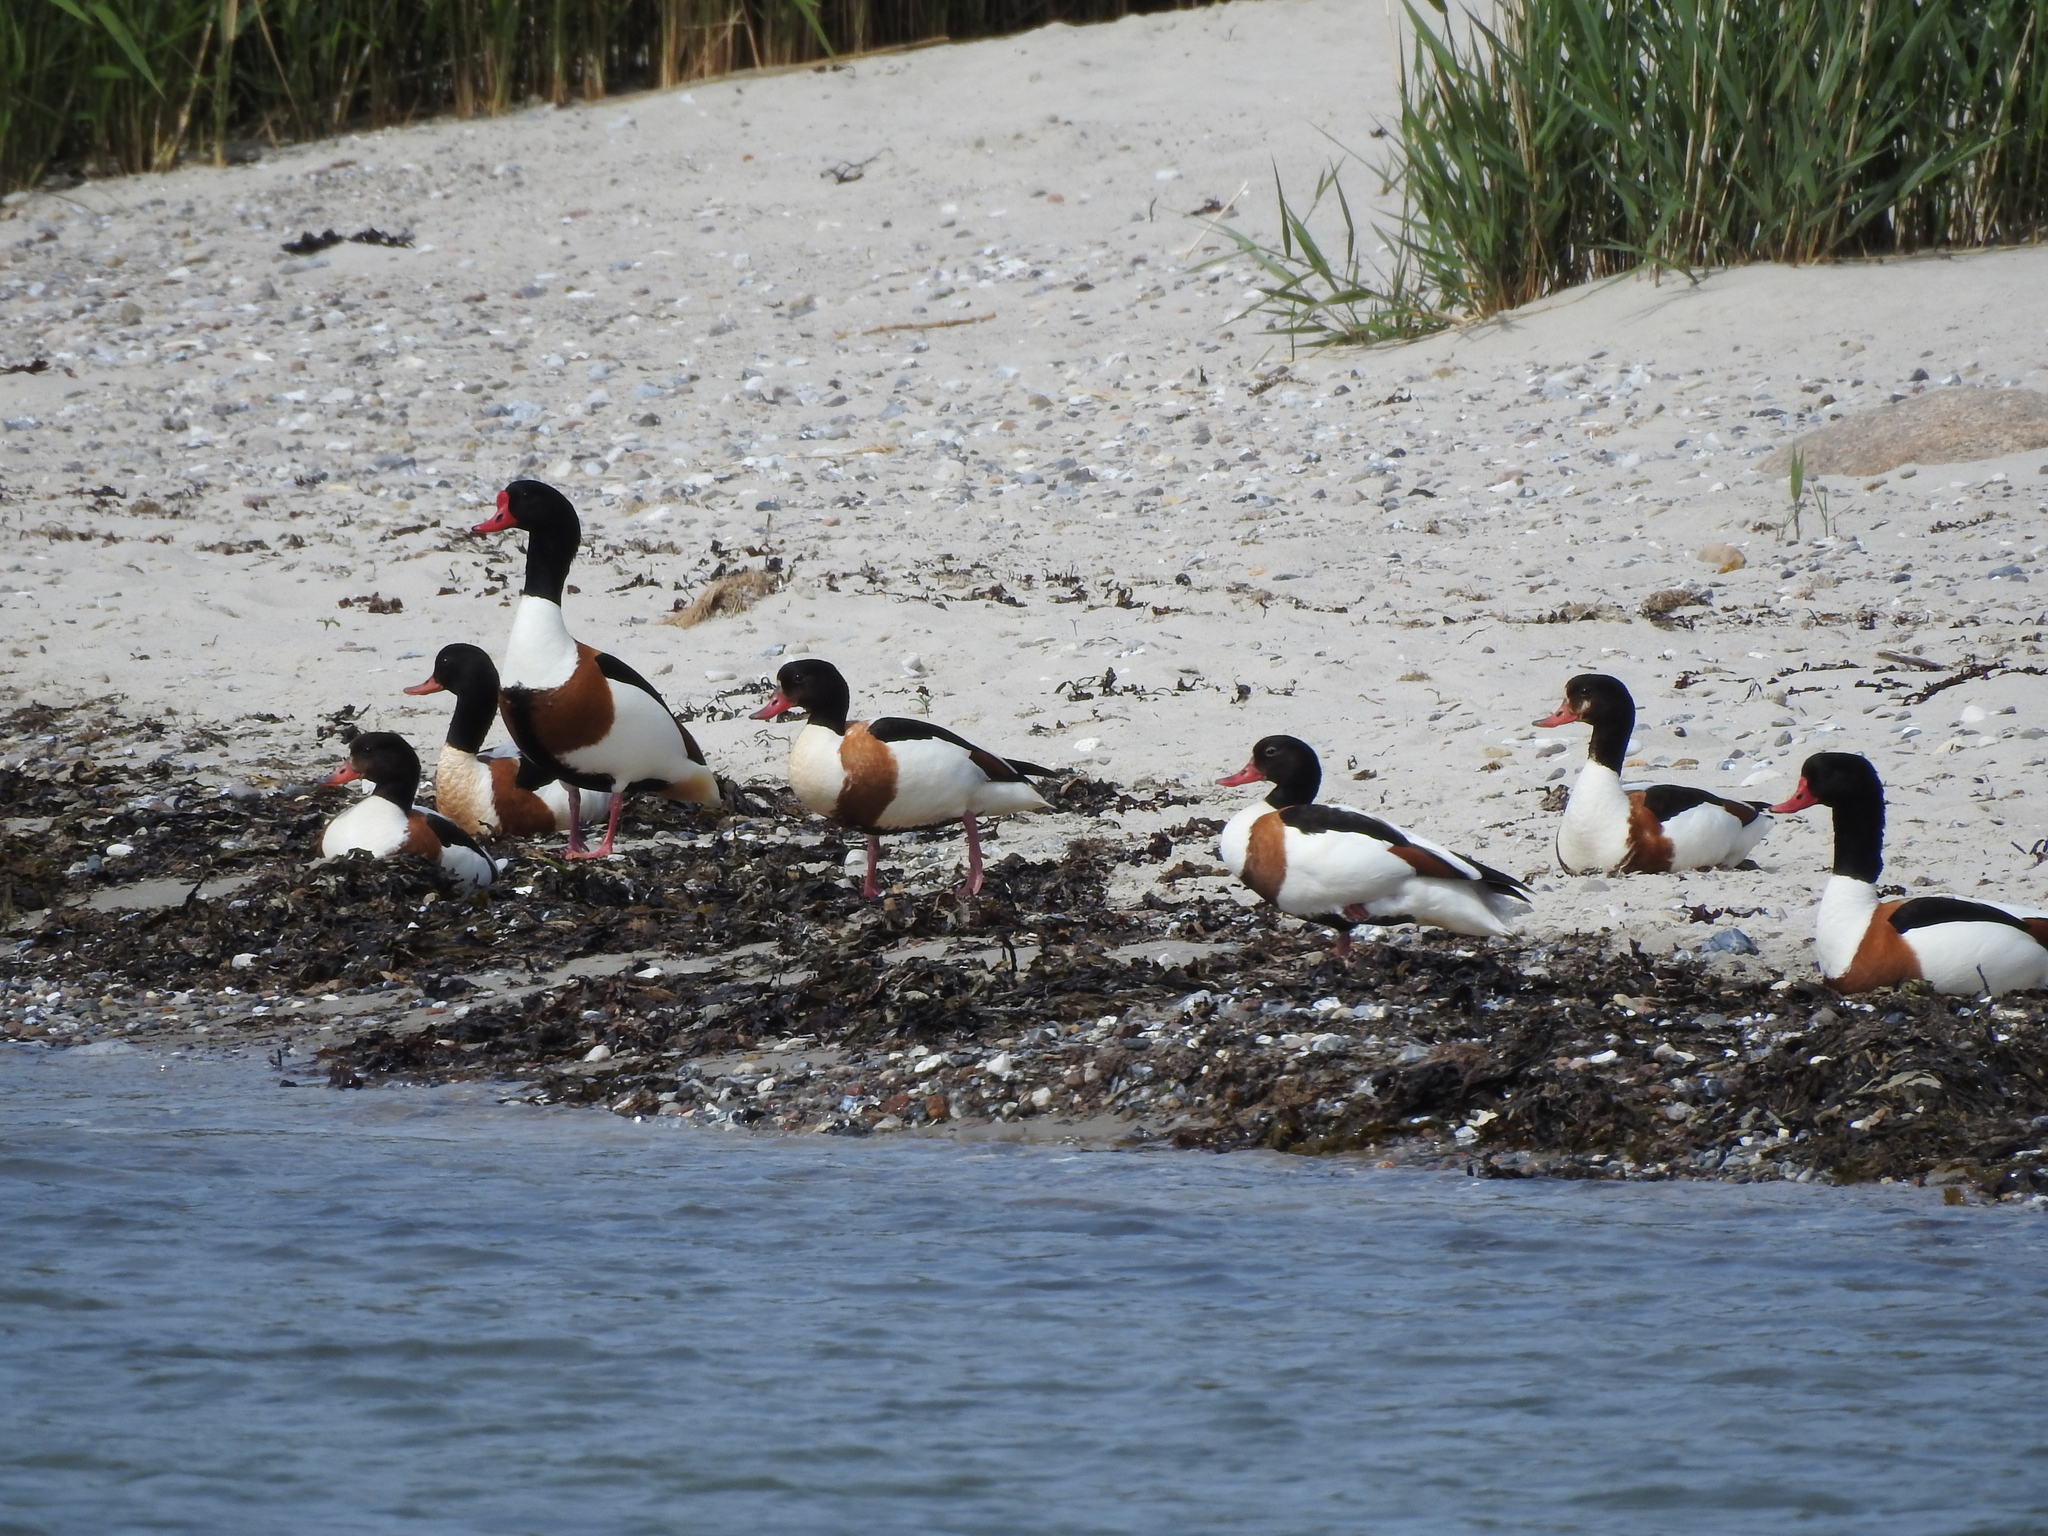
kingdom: Animalia
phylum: Chordata
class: Aves
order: Anseriformes
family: Anatidae
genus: Tadorna
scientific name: Tadorna tadorna
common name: Common shelduck
